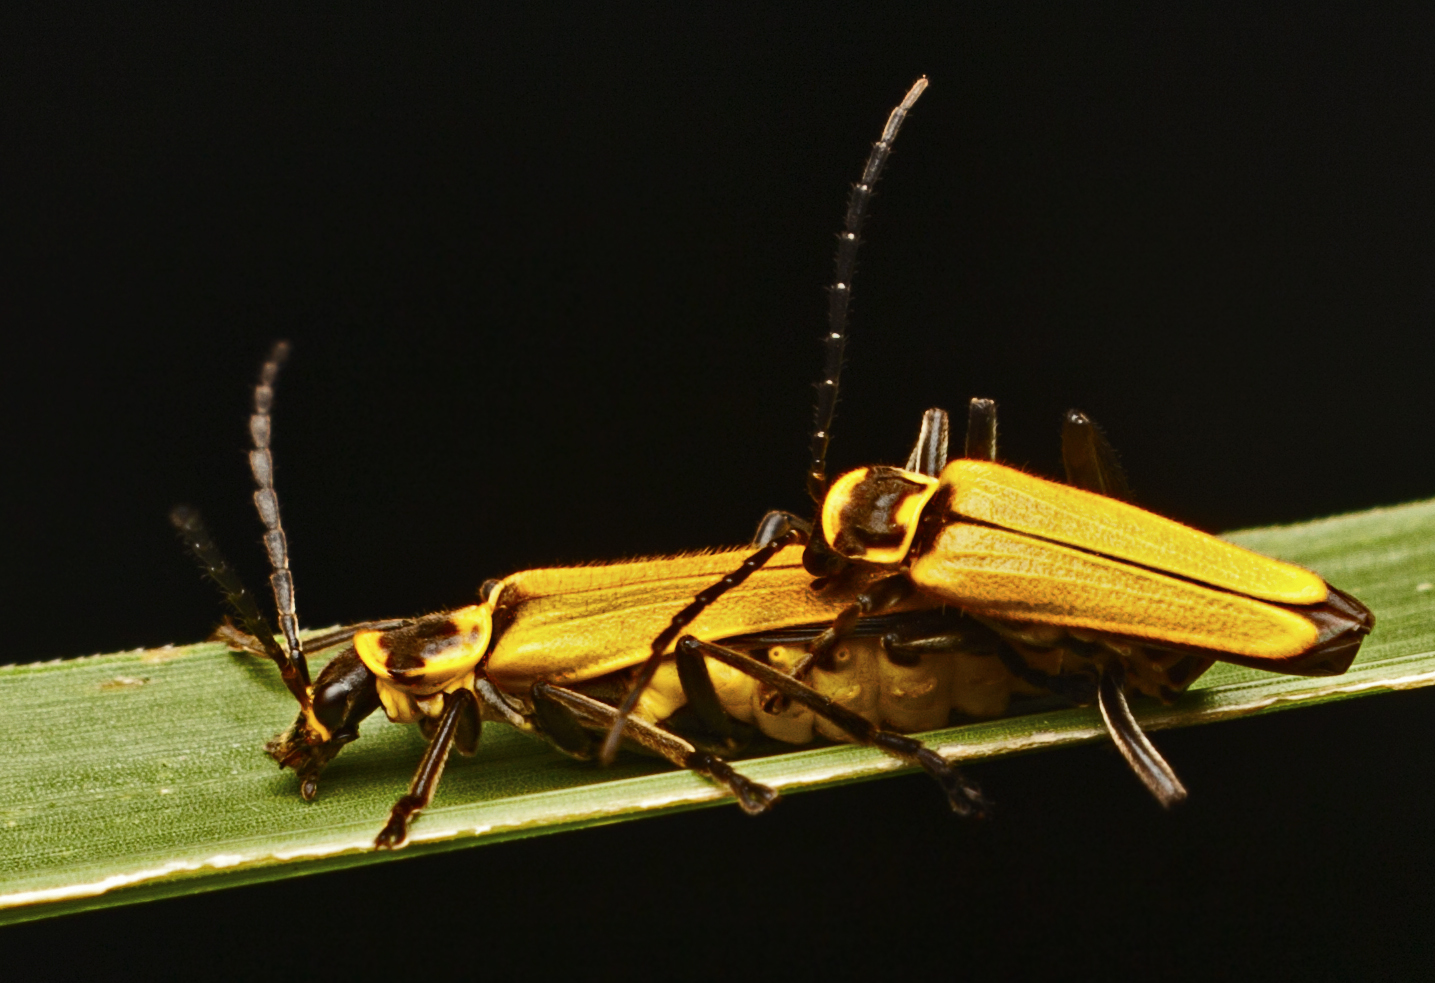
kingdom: Animalia
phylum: Arthropoda
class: Insecta
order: Coleoptera
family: Cantharidae
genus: Chauliognathus
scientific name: Chauliognathus
